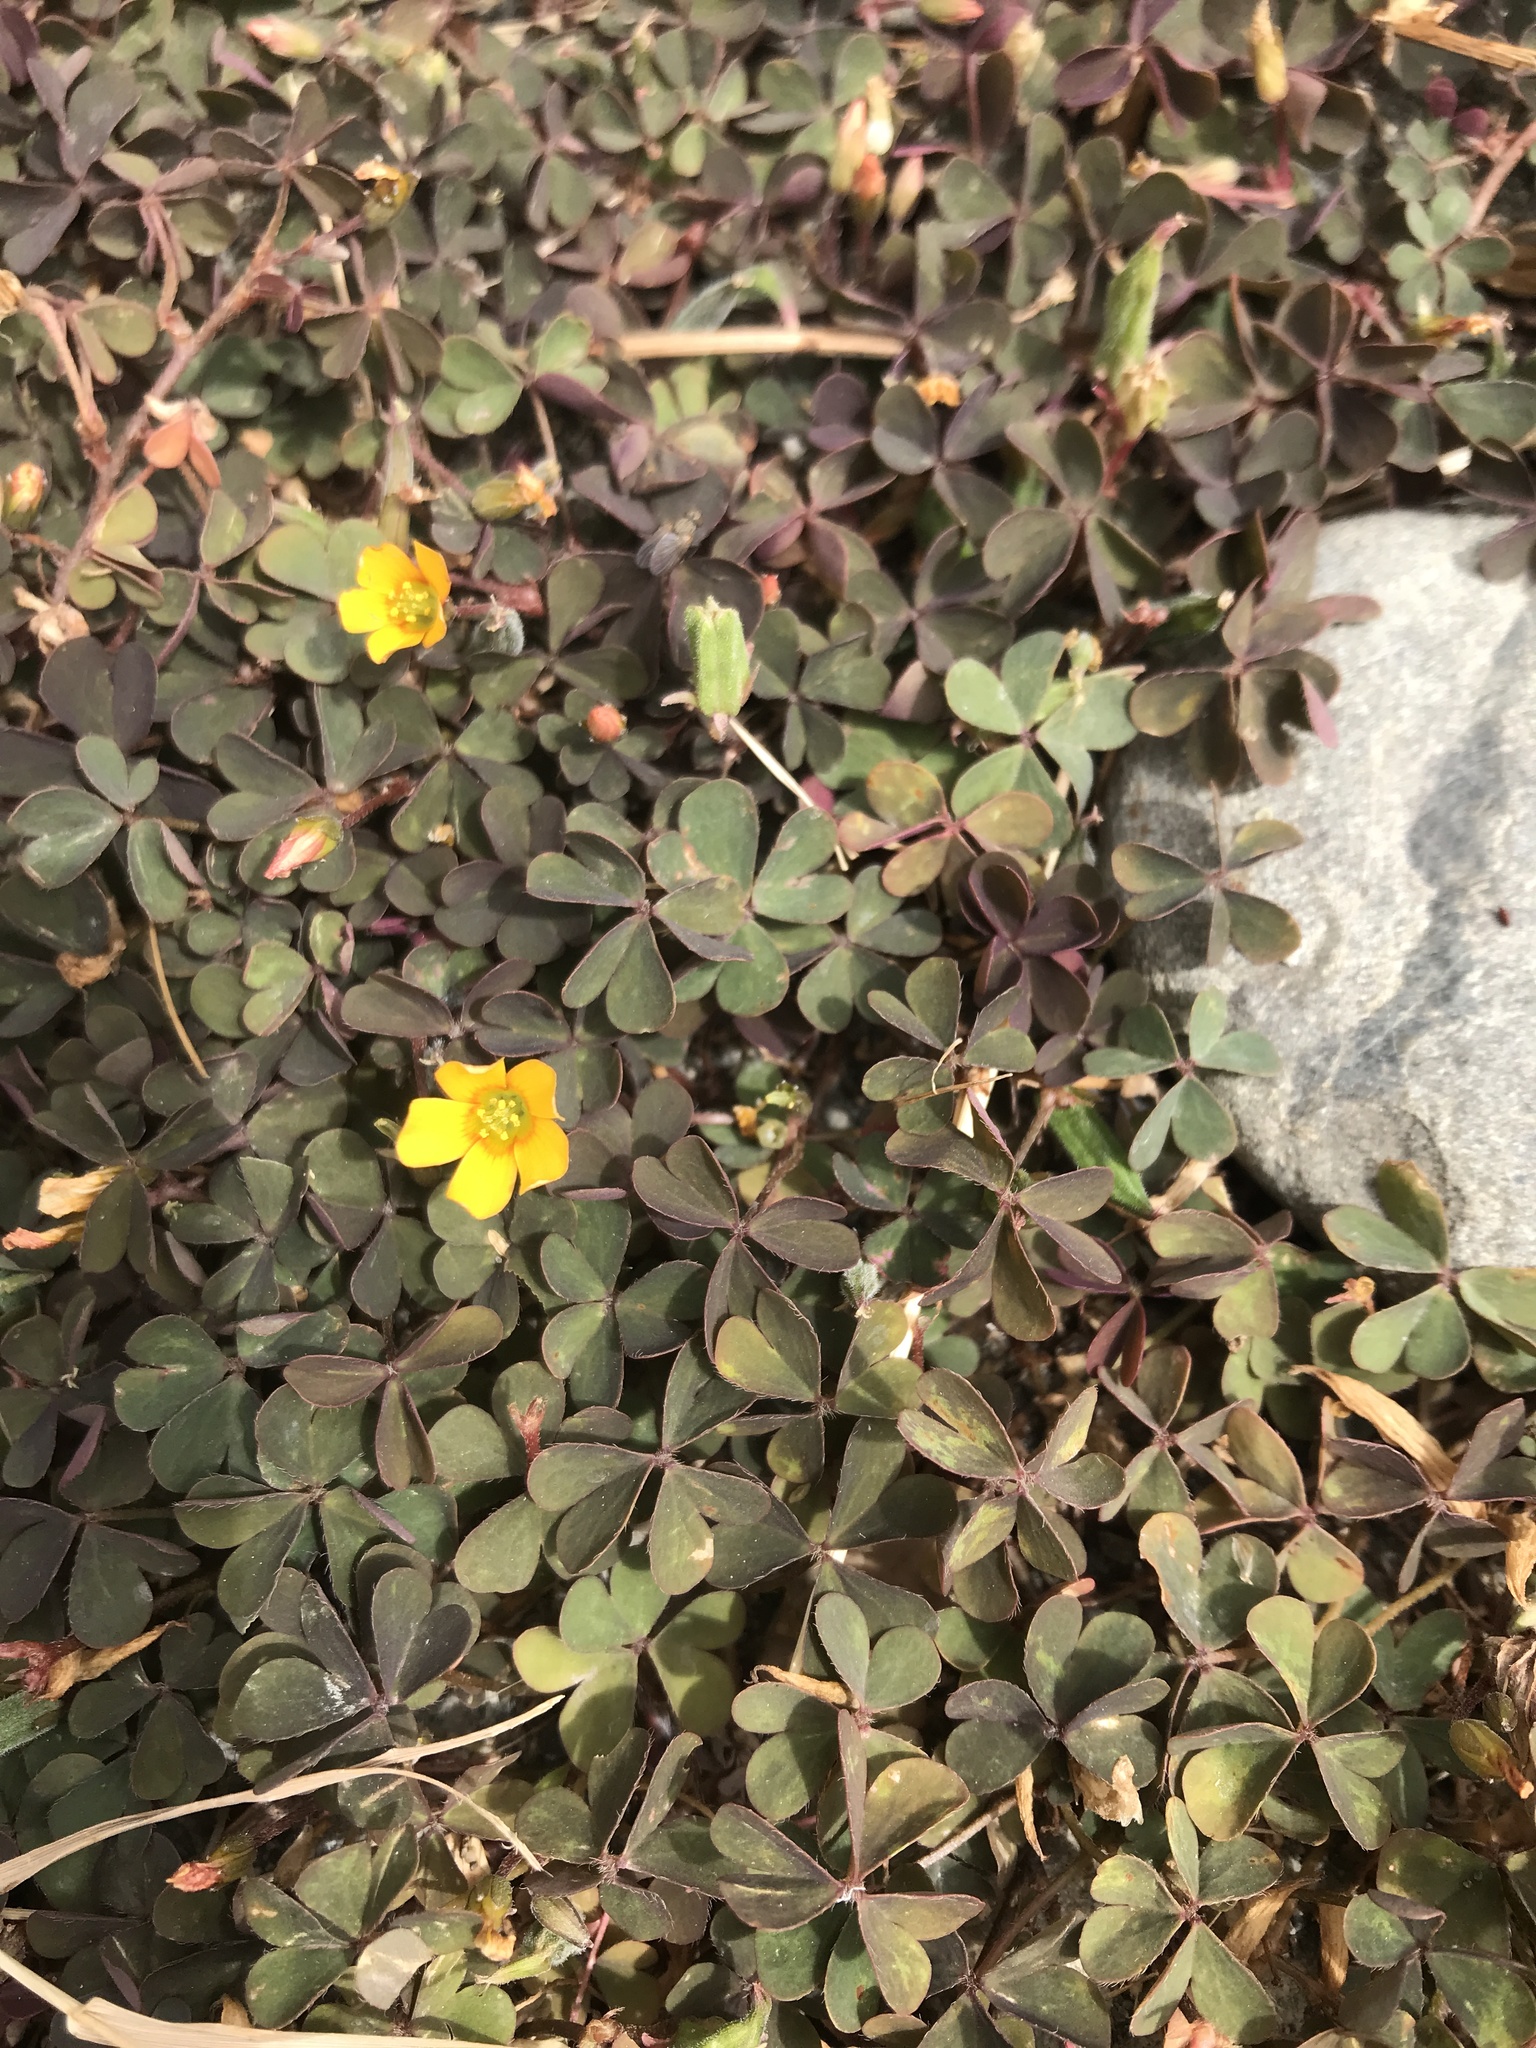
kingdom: Plantae
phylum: Tracheophyta
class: Magnoliopsida
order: Oxalidales
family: Oxalidaceae
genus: Oxalis
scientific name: Oxalis corniculata
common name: Procumbent yellow-sorrel
